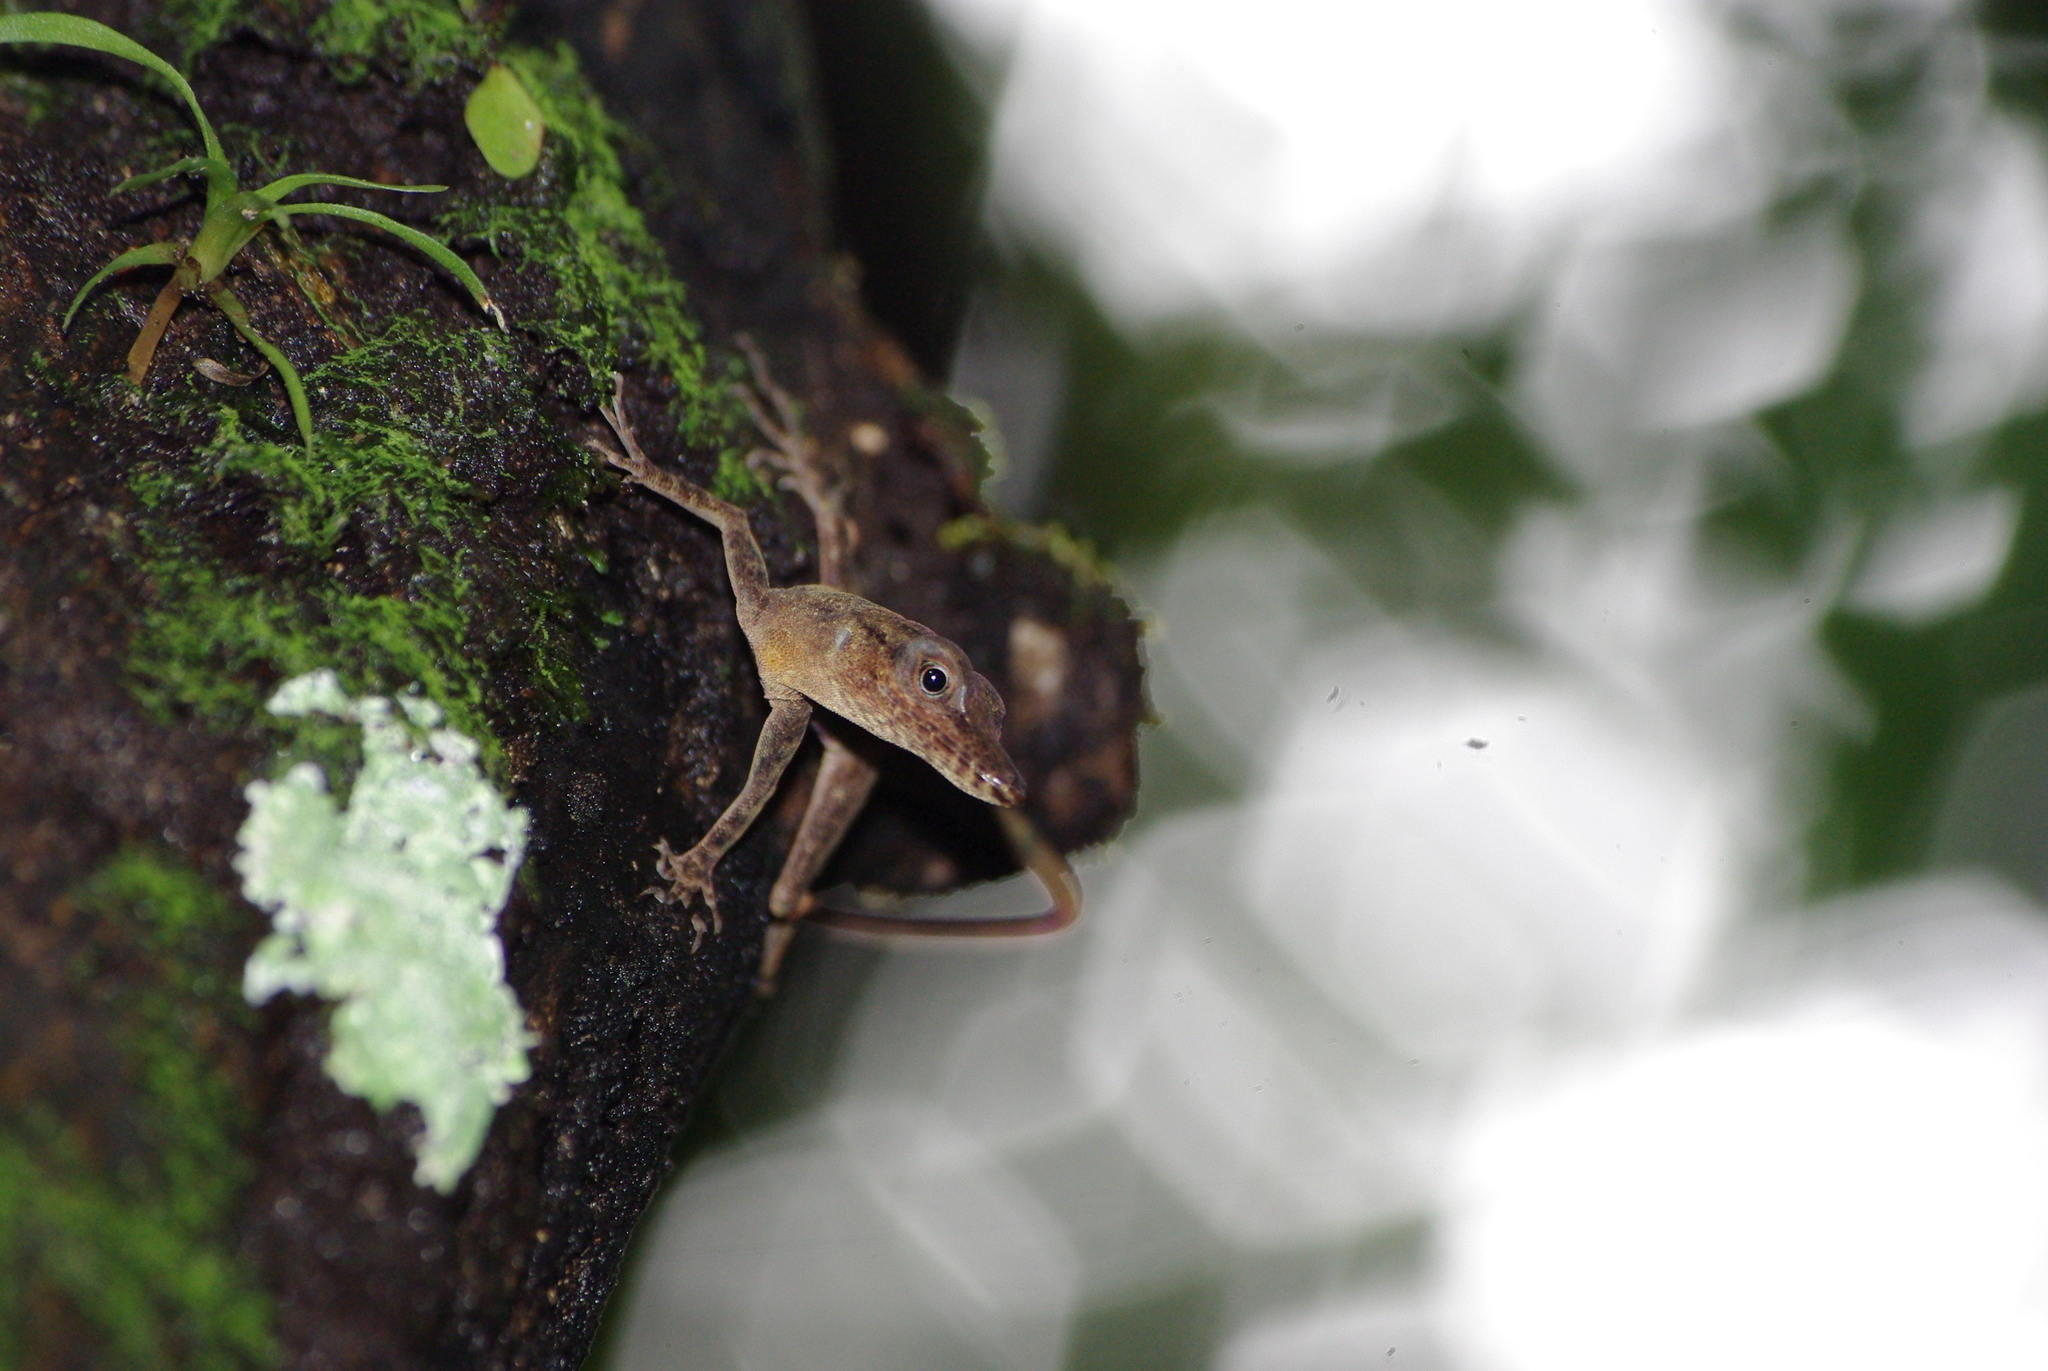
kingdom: Animalia
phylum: Chordata
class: Squamata
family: Dactyloidae
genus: Anolis
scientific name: Anolis luciae
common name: St. lucia anole
